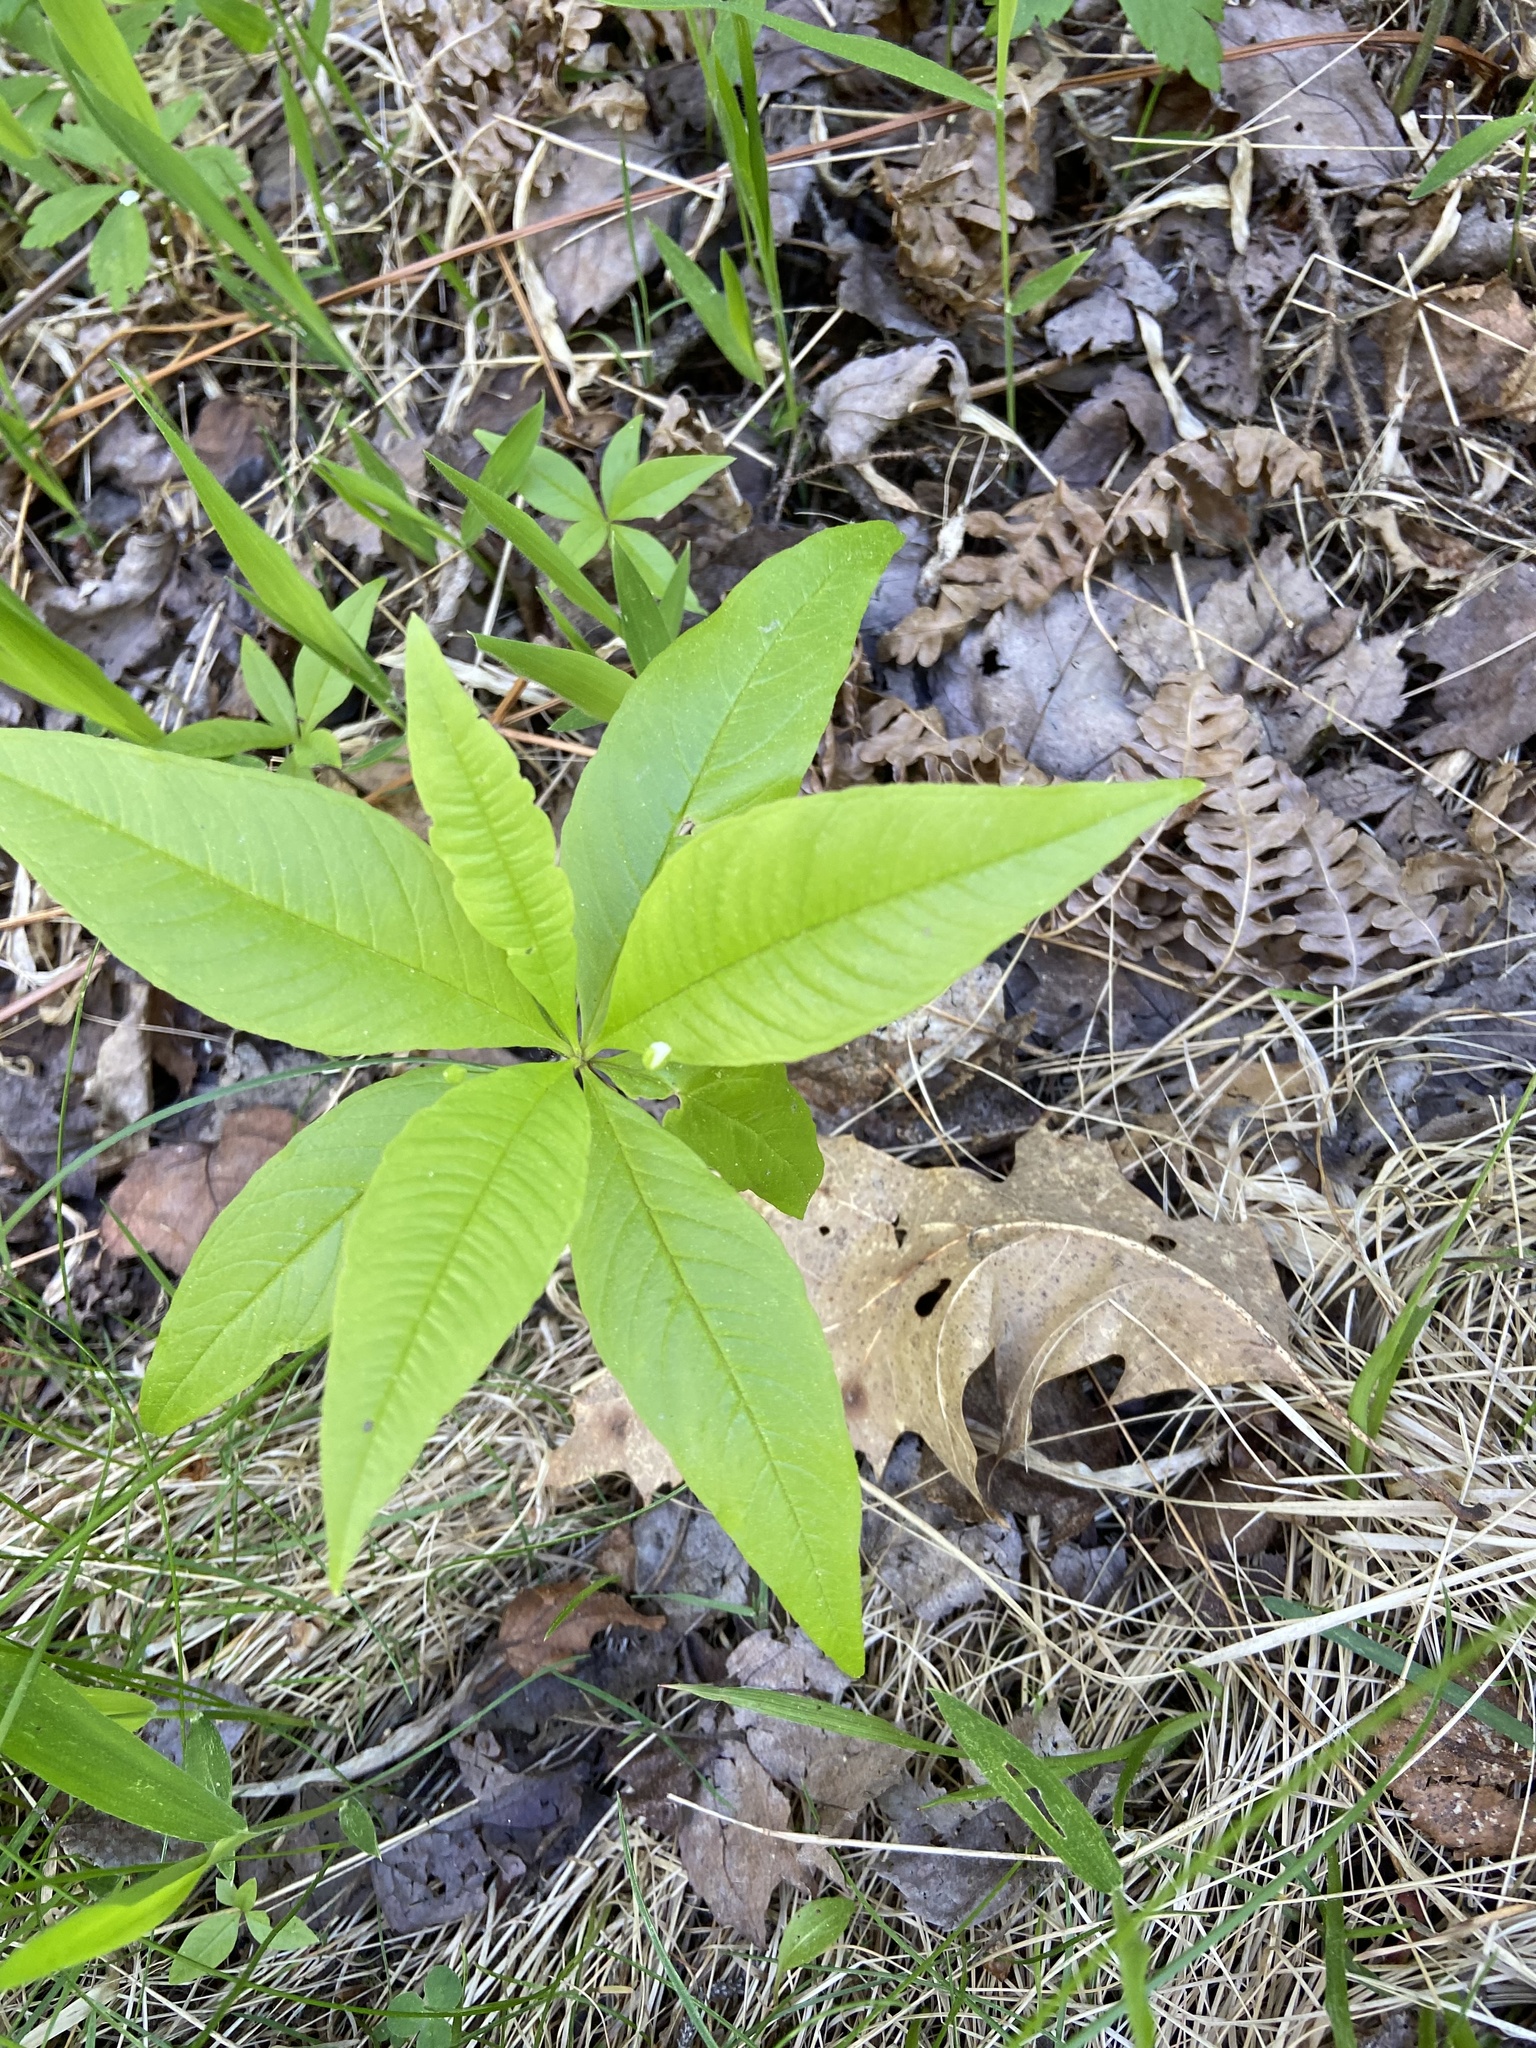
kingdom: Plantae
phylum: Tracheophyta
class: Magnoliopsida
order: Ericales
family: Primulaceae
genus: Lysimachia
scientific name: Lysimachia borealis
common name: American starflower
